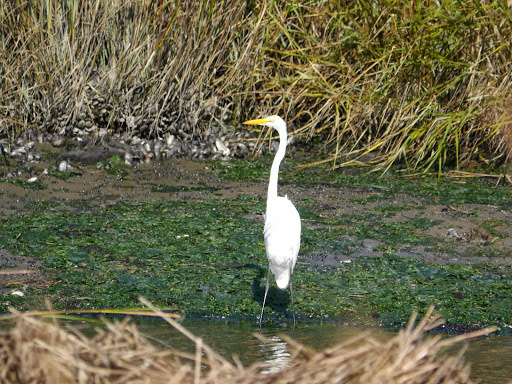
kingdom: Animalia
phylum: Chordata
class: Aves
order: Pelecaniformes
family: Ardeidae
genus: Ardea
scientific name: Ardea alba
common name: Great egret
